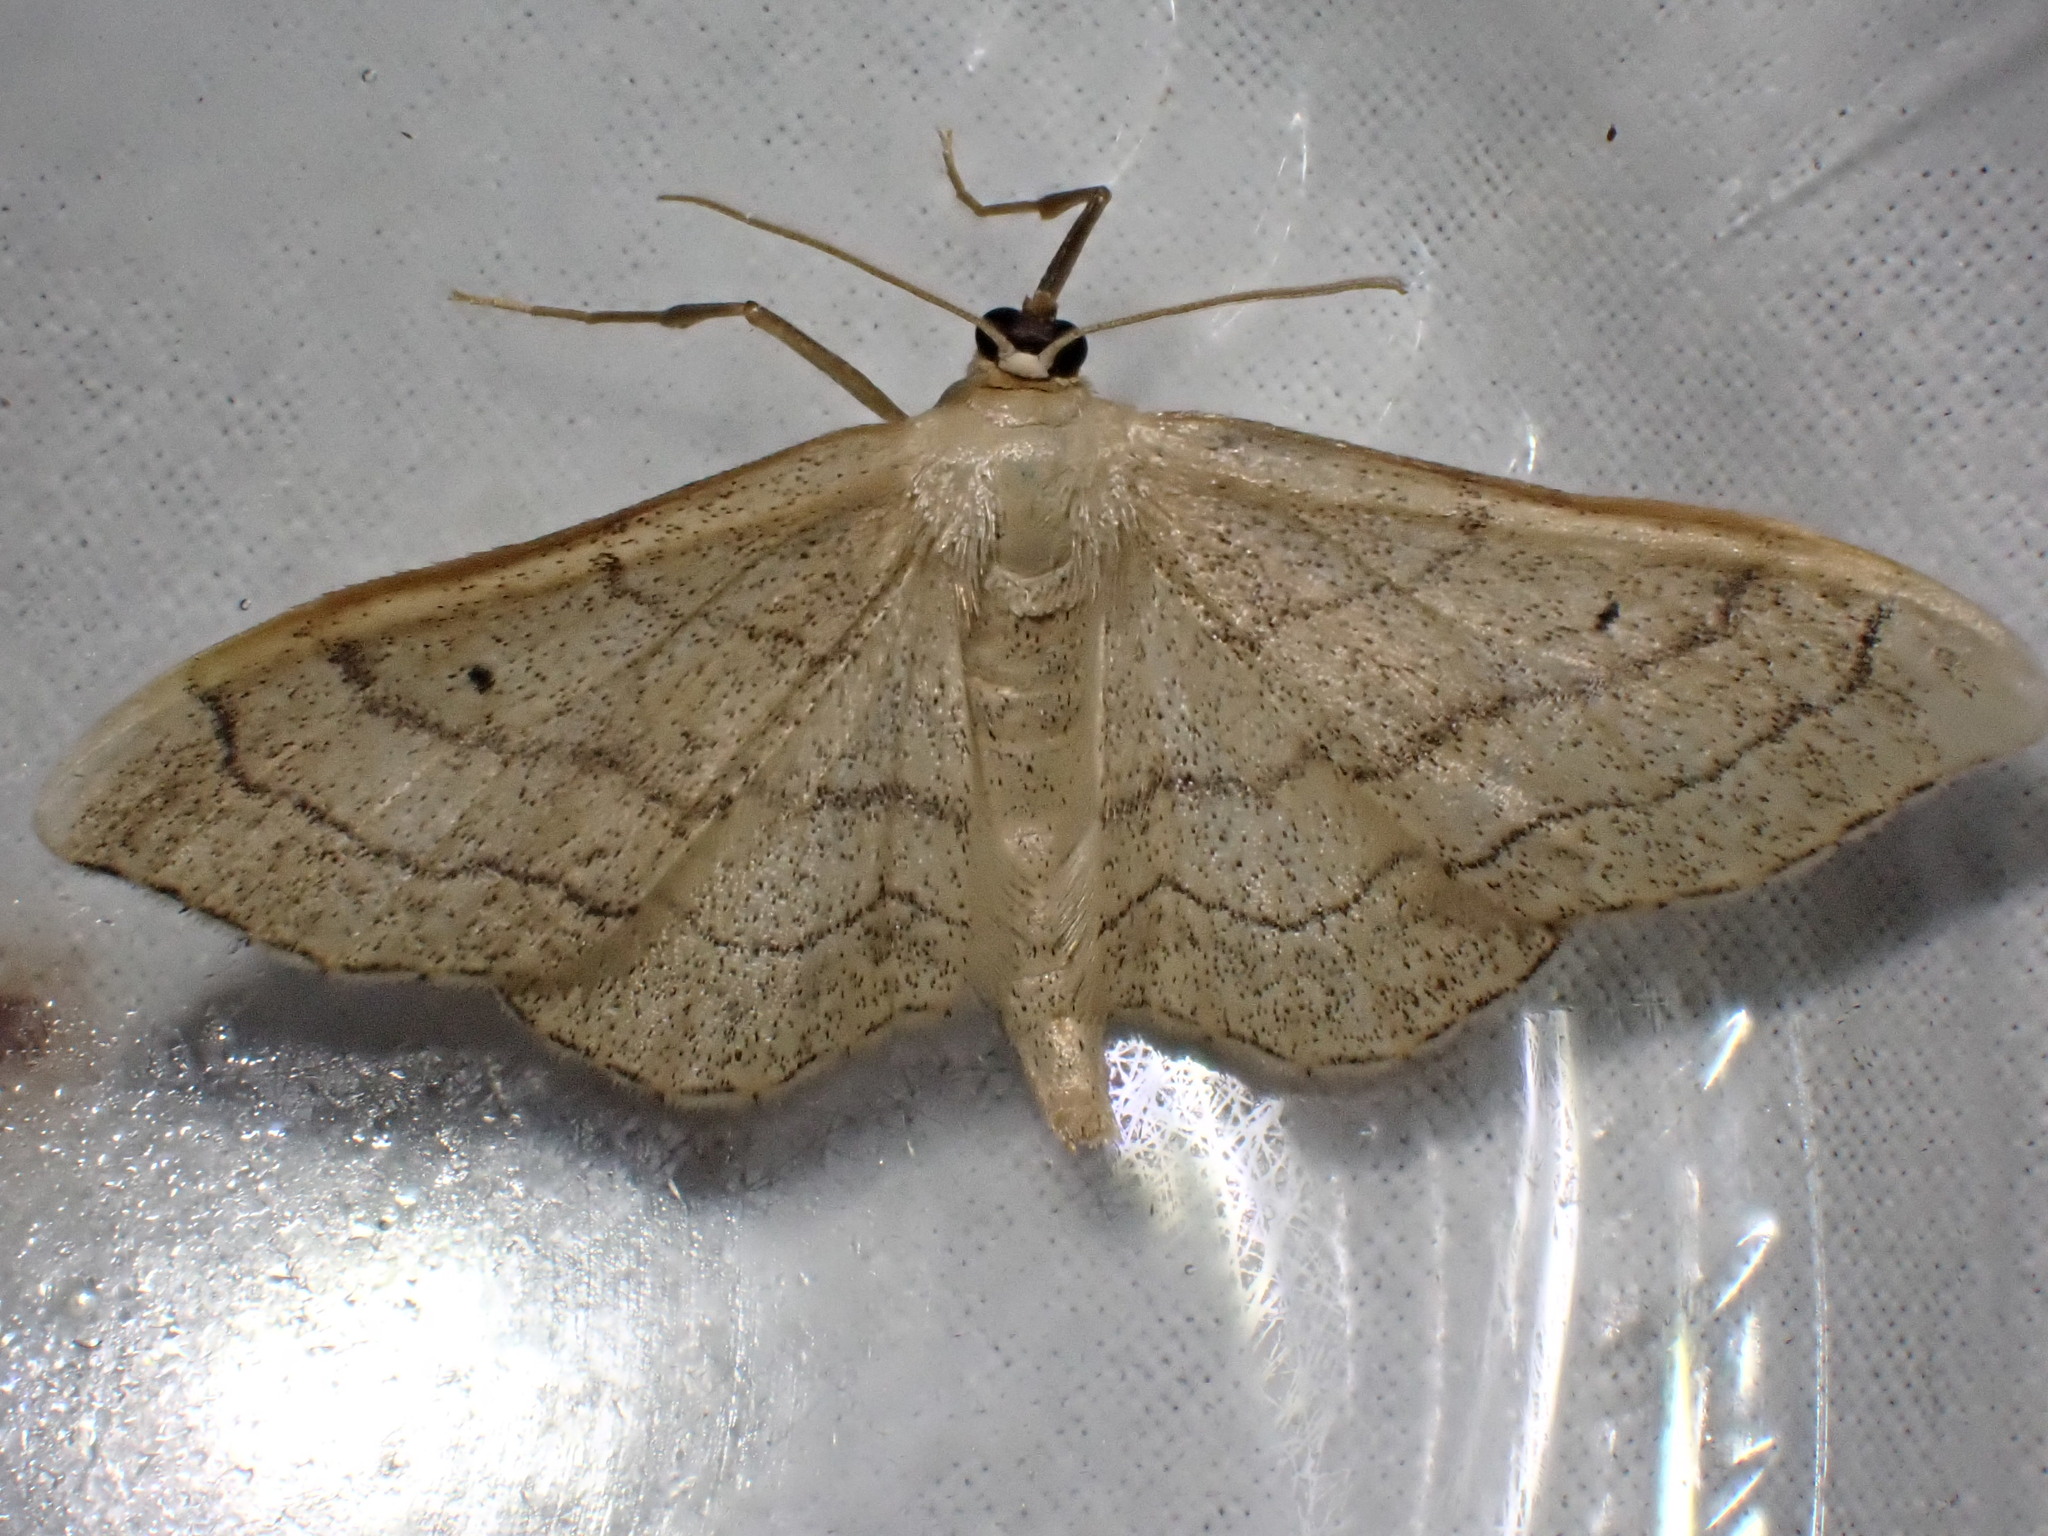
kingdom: Animalia
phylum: Arthropoda
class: Insecta
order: Lepidoptera
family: Geometridae
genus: Idaea
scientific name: Idaea aversata
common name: Riband wave
